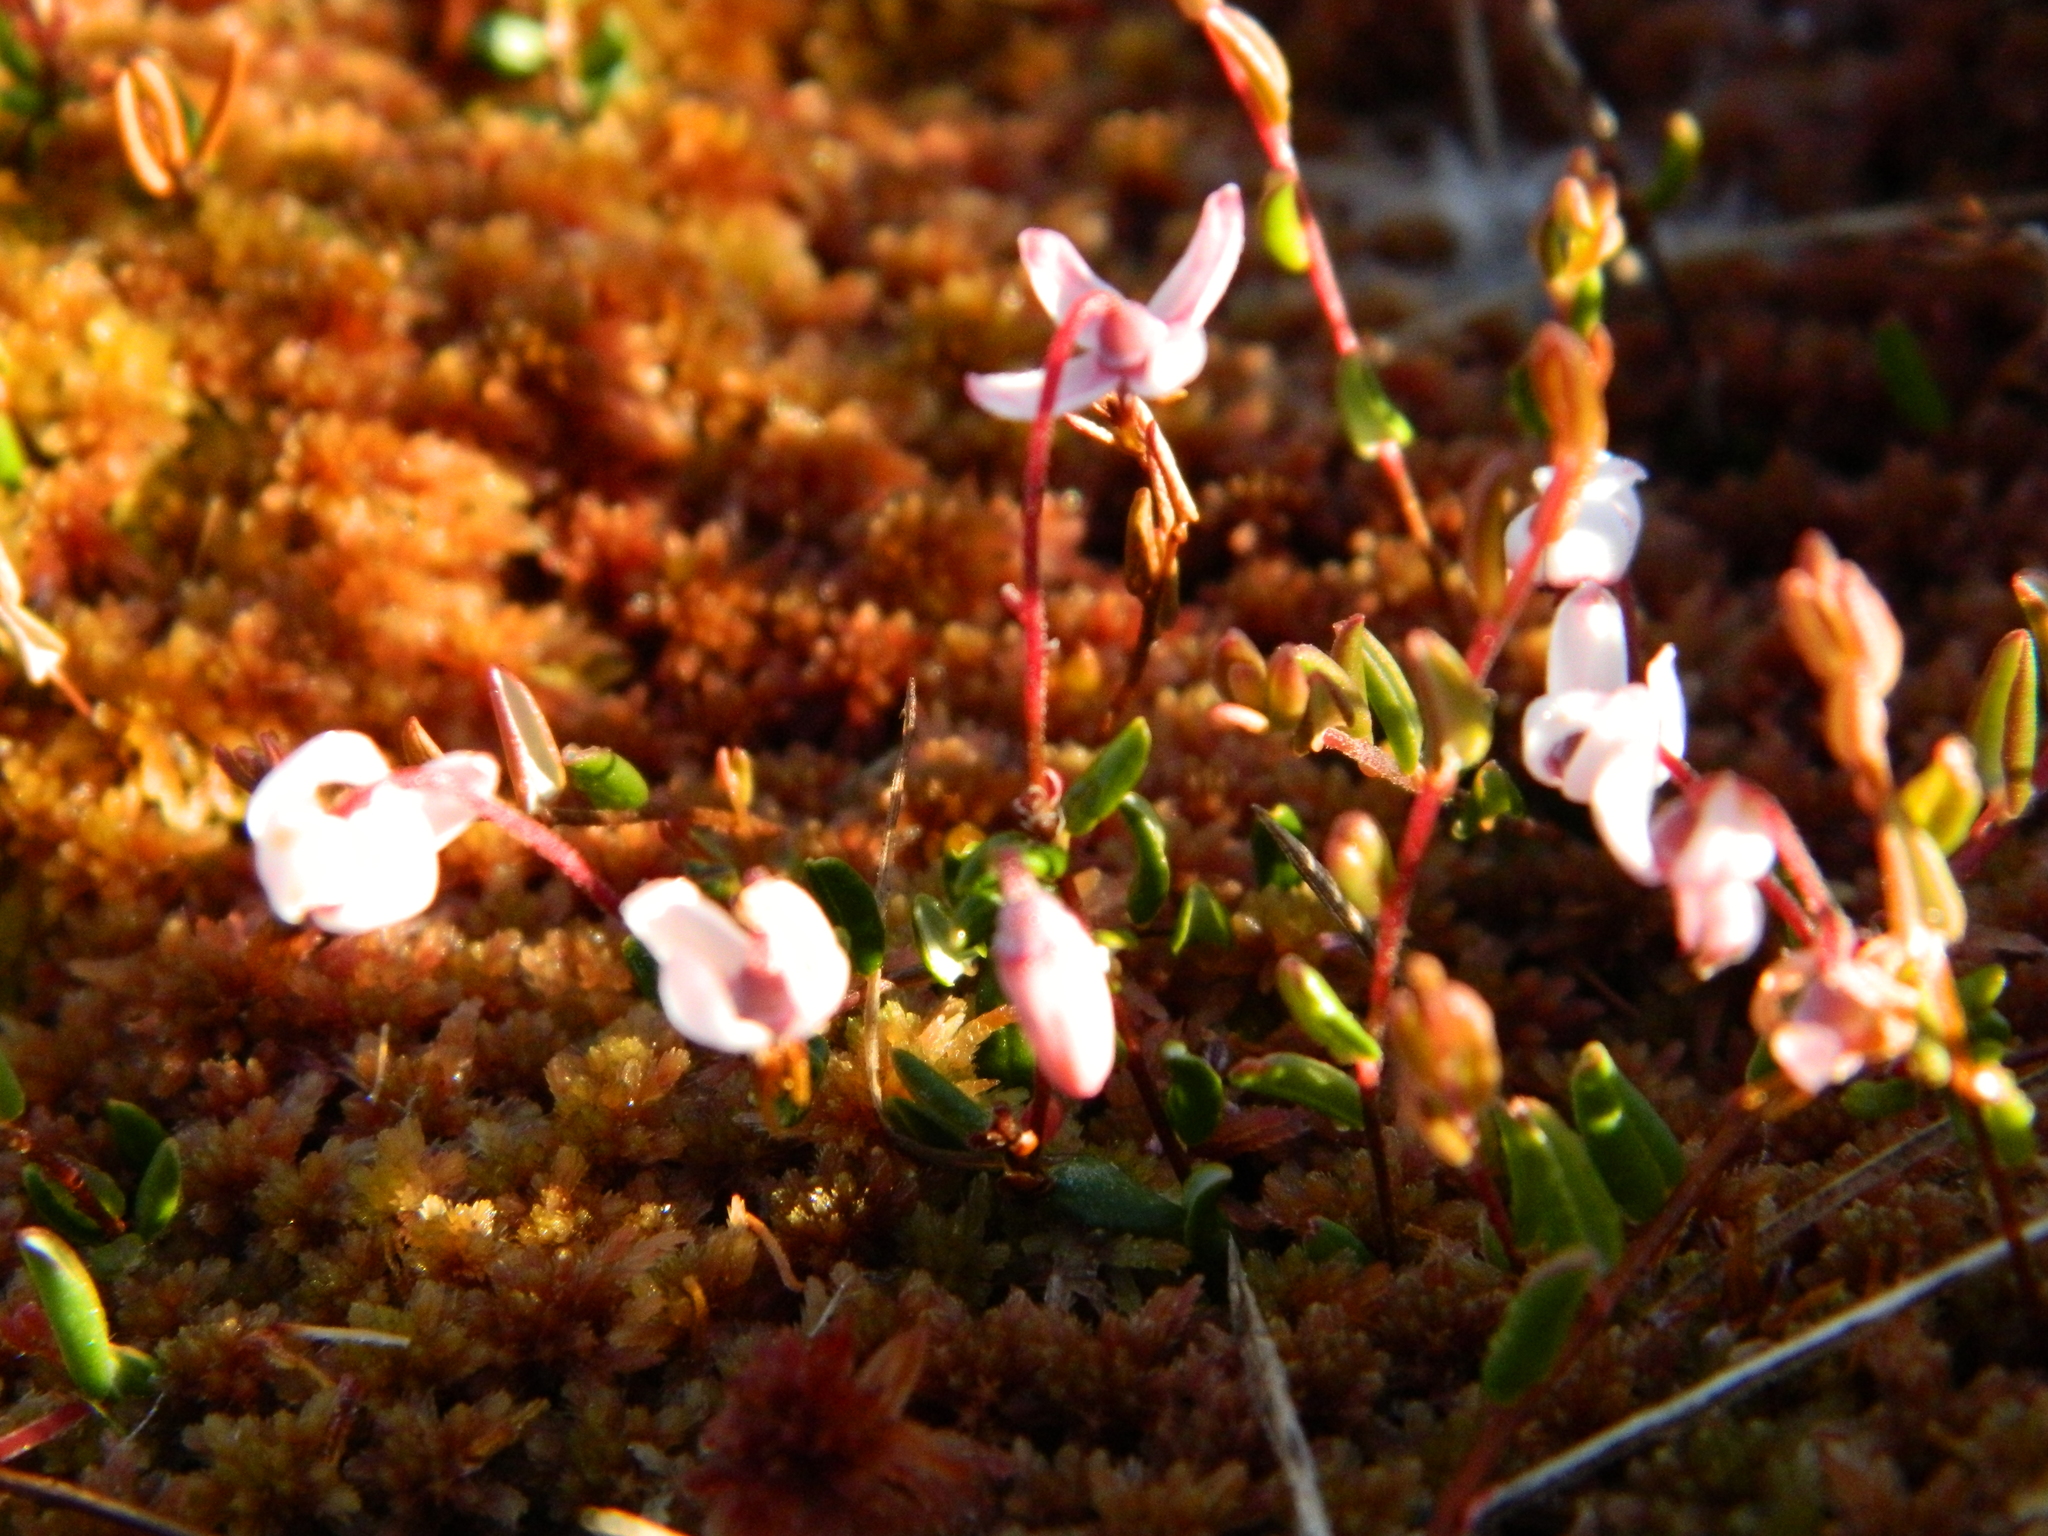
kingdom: Plantae
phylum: Tracheophyta
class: Magnoliopsida
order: Ericales
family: Ericaceae
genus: Vaccinium
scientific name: Vaccinium oxycoccos
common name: Cranberry
